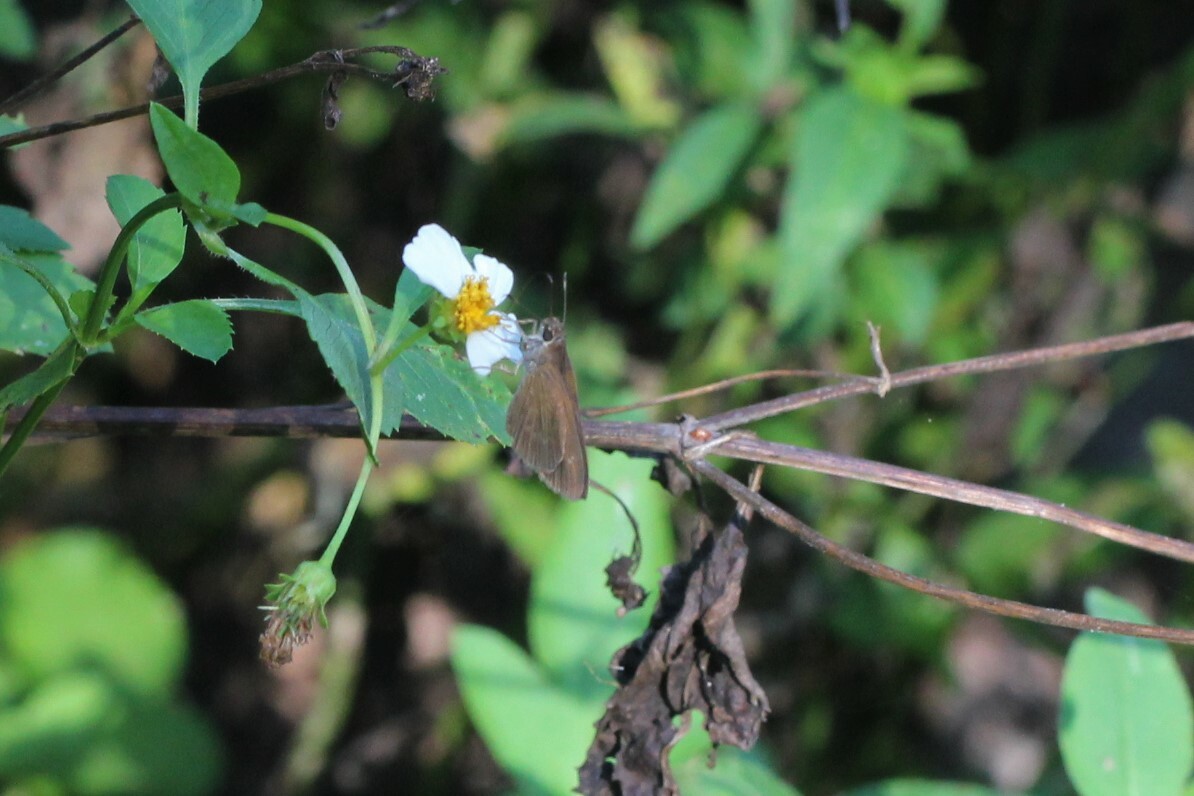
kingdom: Animalia
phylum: Arthropoda
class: Insecta
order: Lepidoptera
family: Hesperiidae
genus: Cymaenes
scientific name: Cymaenes tripunctus
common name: Dingy dotted skipper
